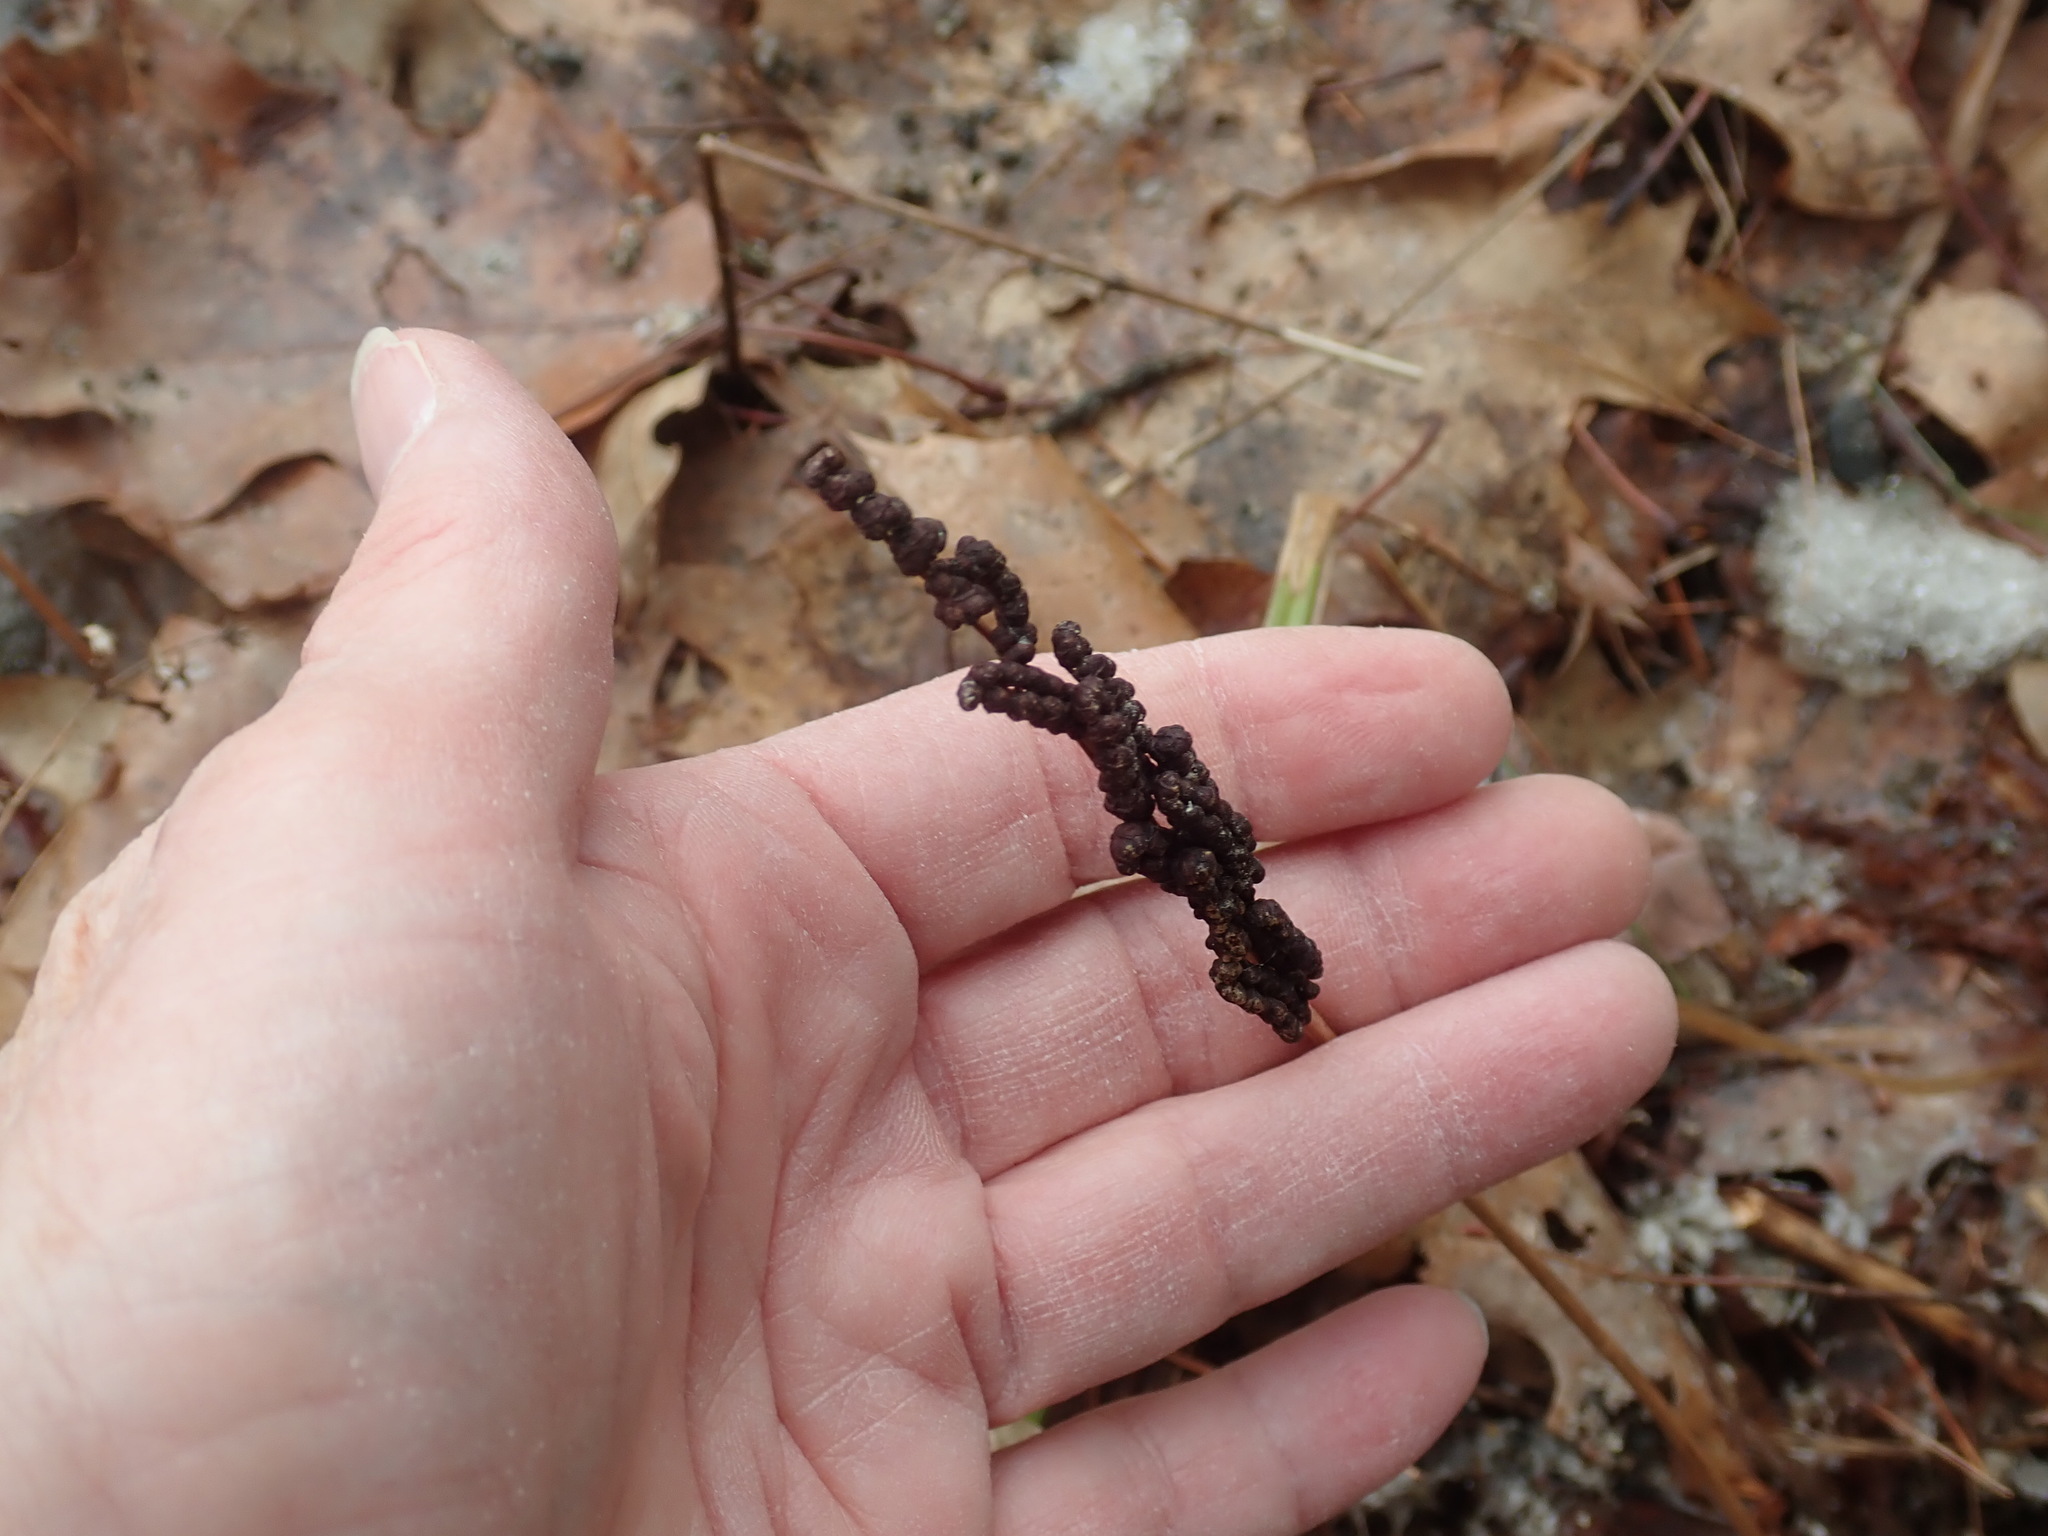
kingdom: Plantae
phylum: Tracheophyta
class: Polypodiopsida
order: Polypodiales
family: Onocleaceae
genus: Onoclea
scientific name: Onoclea sensibilis
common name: Sensitive fern
